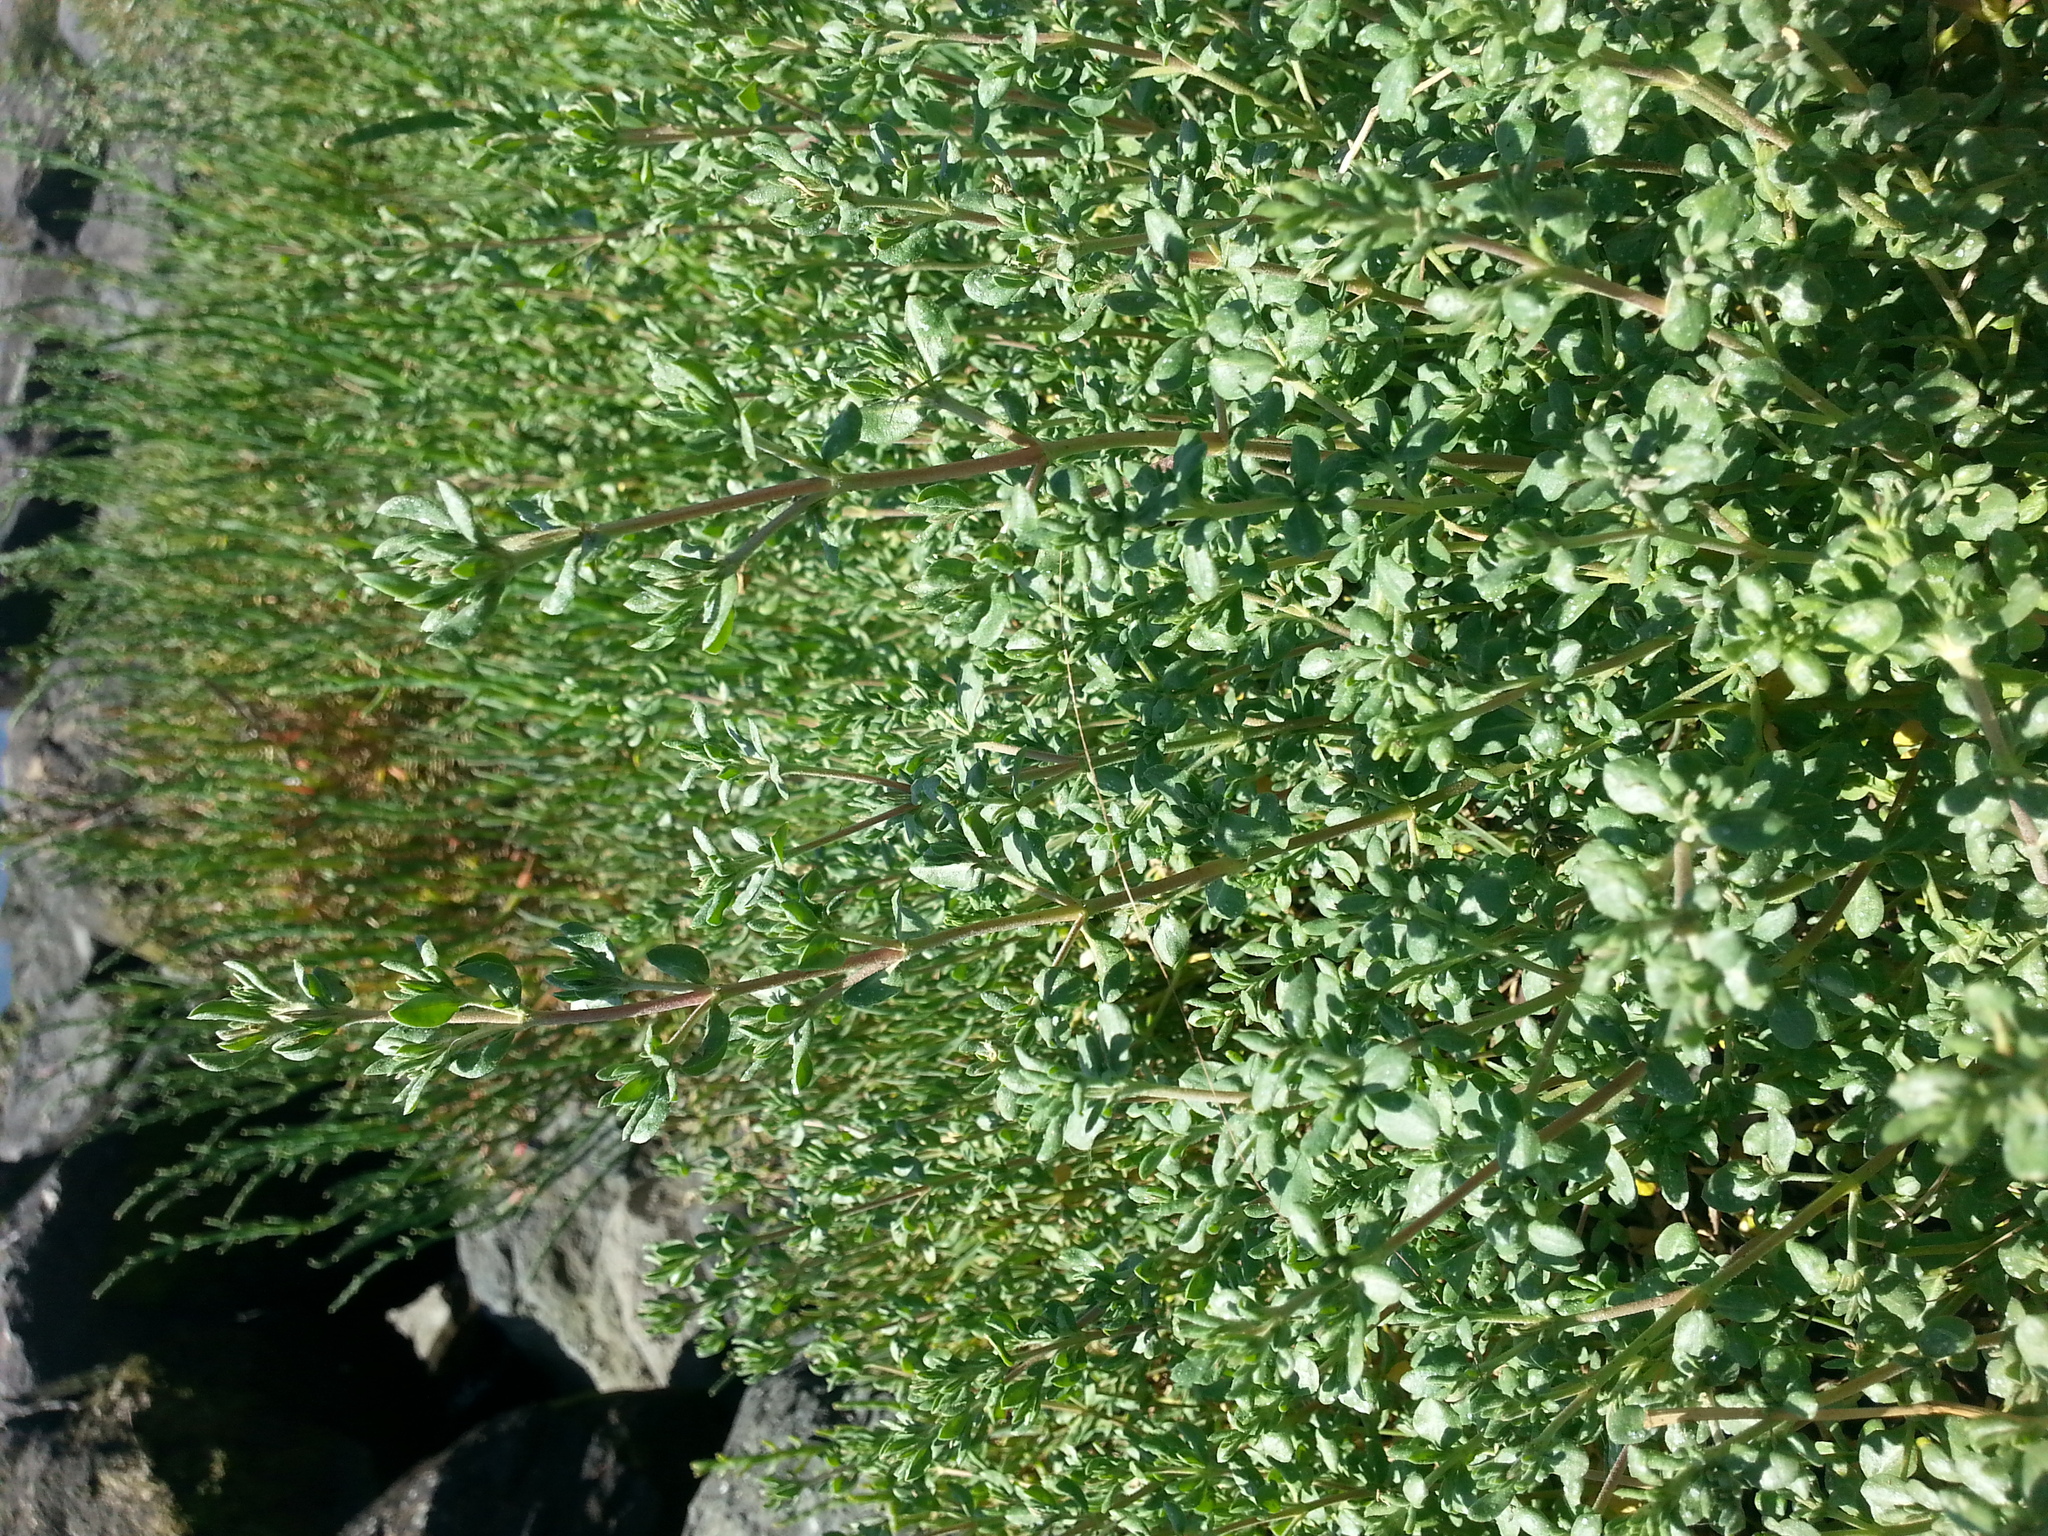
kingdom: Plantae
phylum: Tracheophyta
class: Magnoliopsida
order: Caryophyllales
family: Frankeniaceae
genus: Frankenia
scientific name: Frankenia salina
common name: Alkali seaheath
